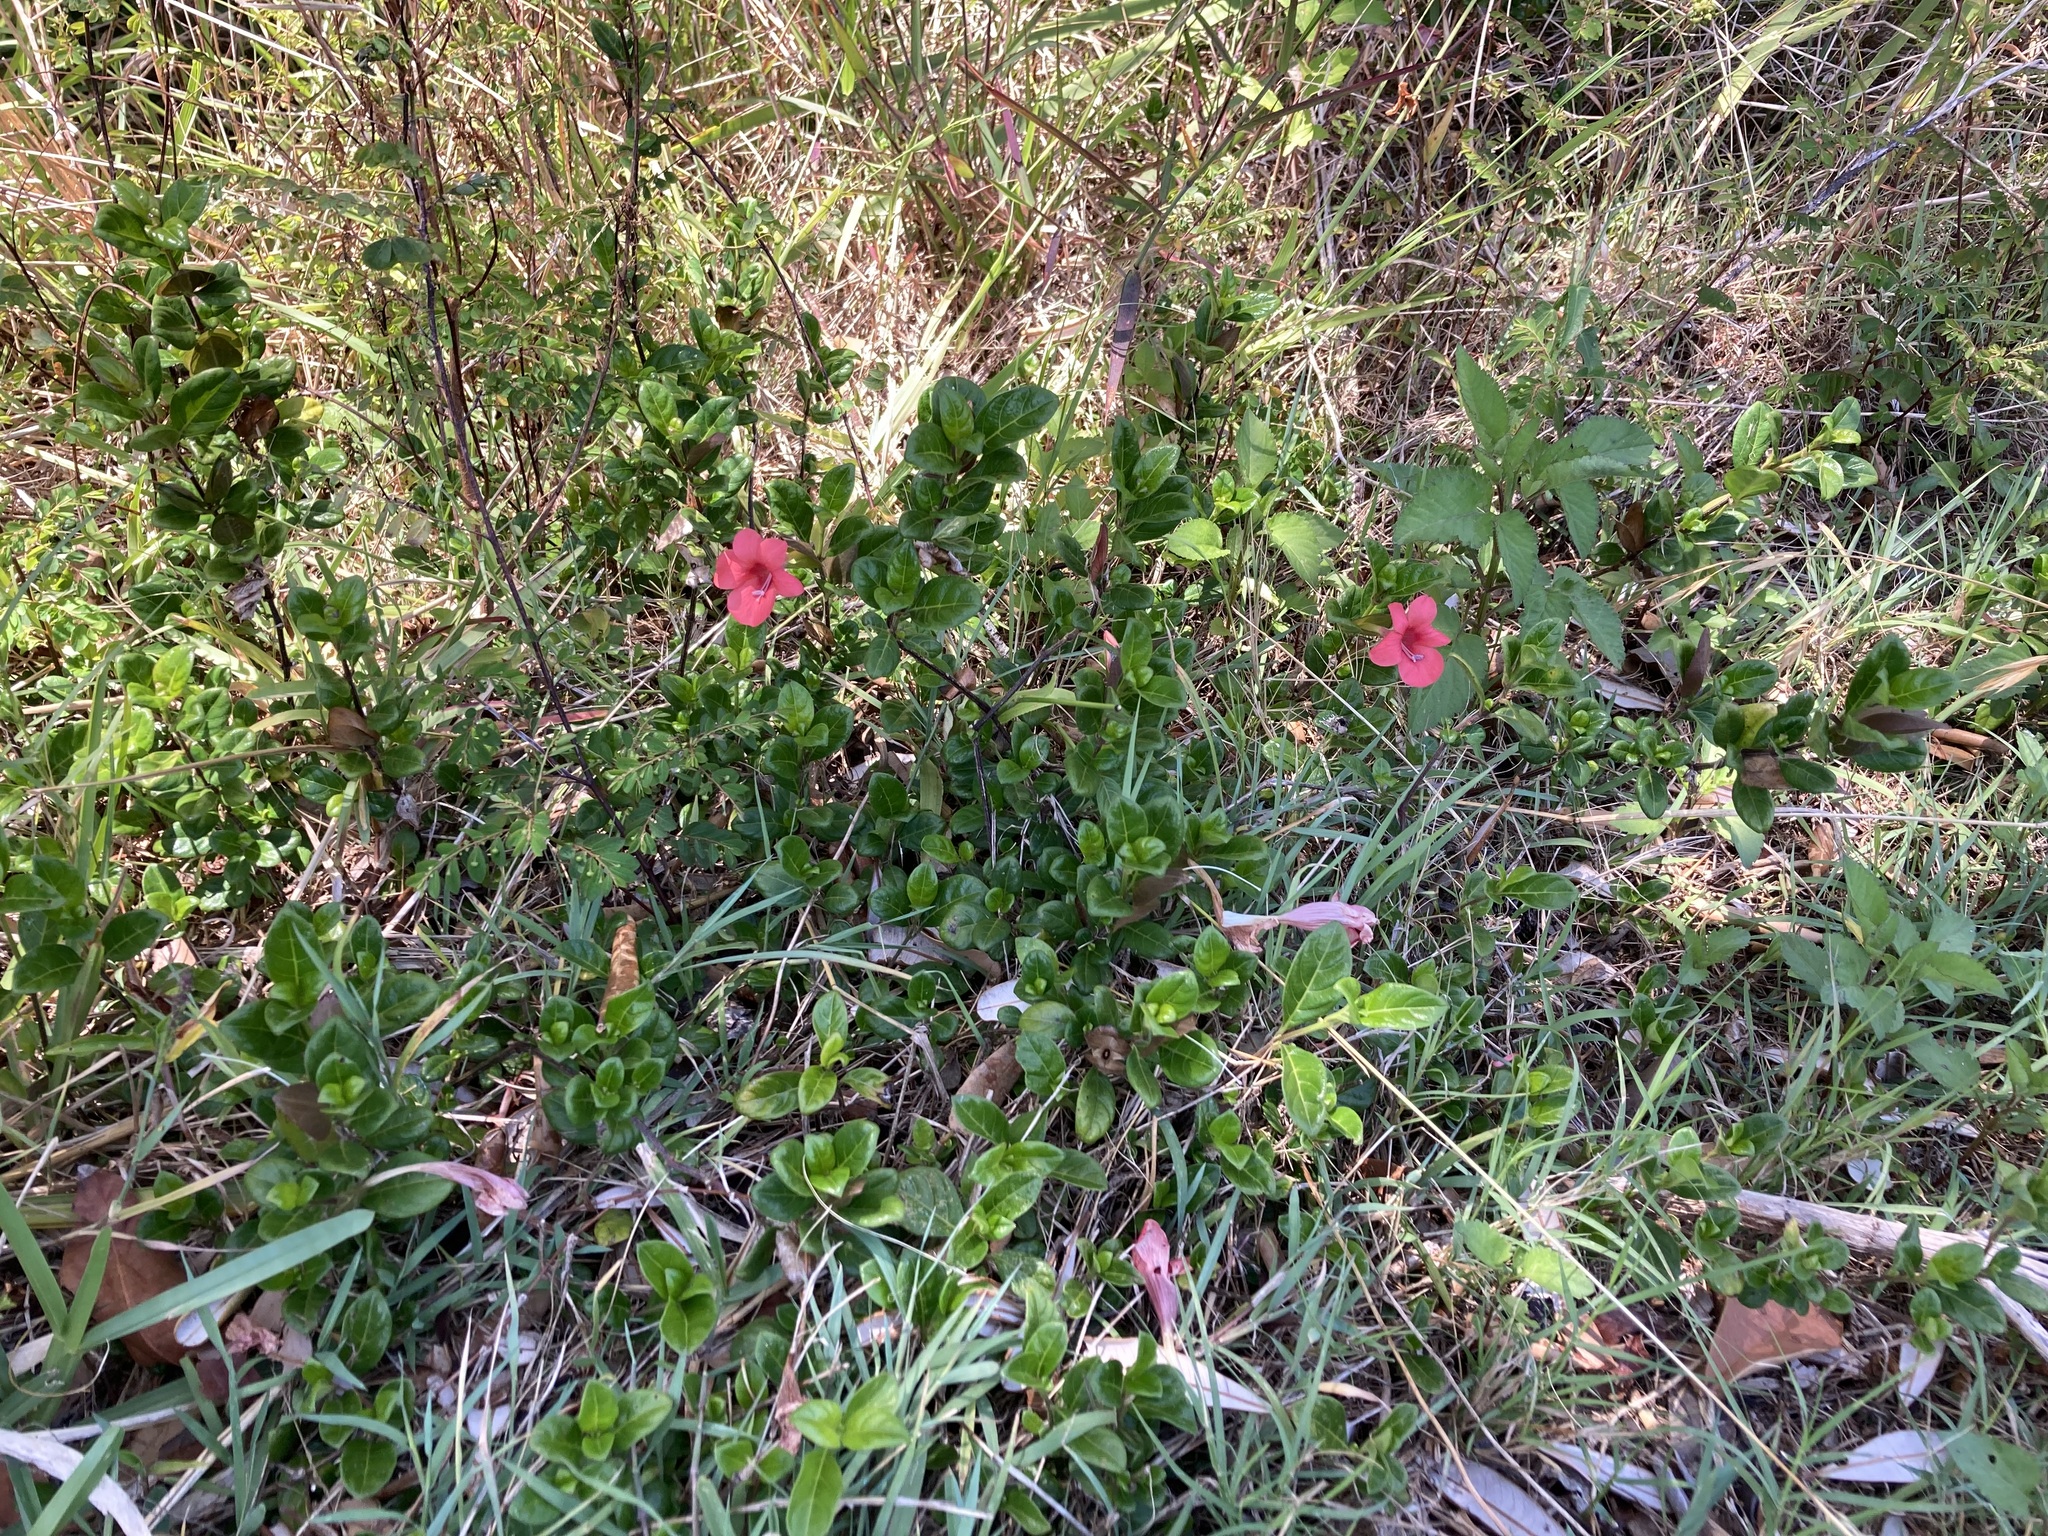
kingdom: Plantae
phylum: Tracheophyta
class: Magnoliopsida
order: Lamiales
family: Acanthaceae
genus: Barleria
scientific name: Barleria repens
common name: Pink-ruellia
